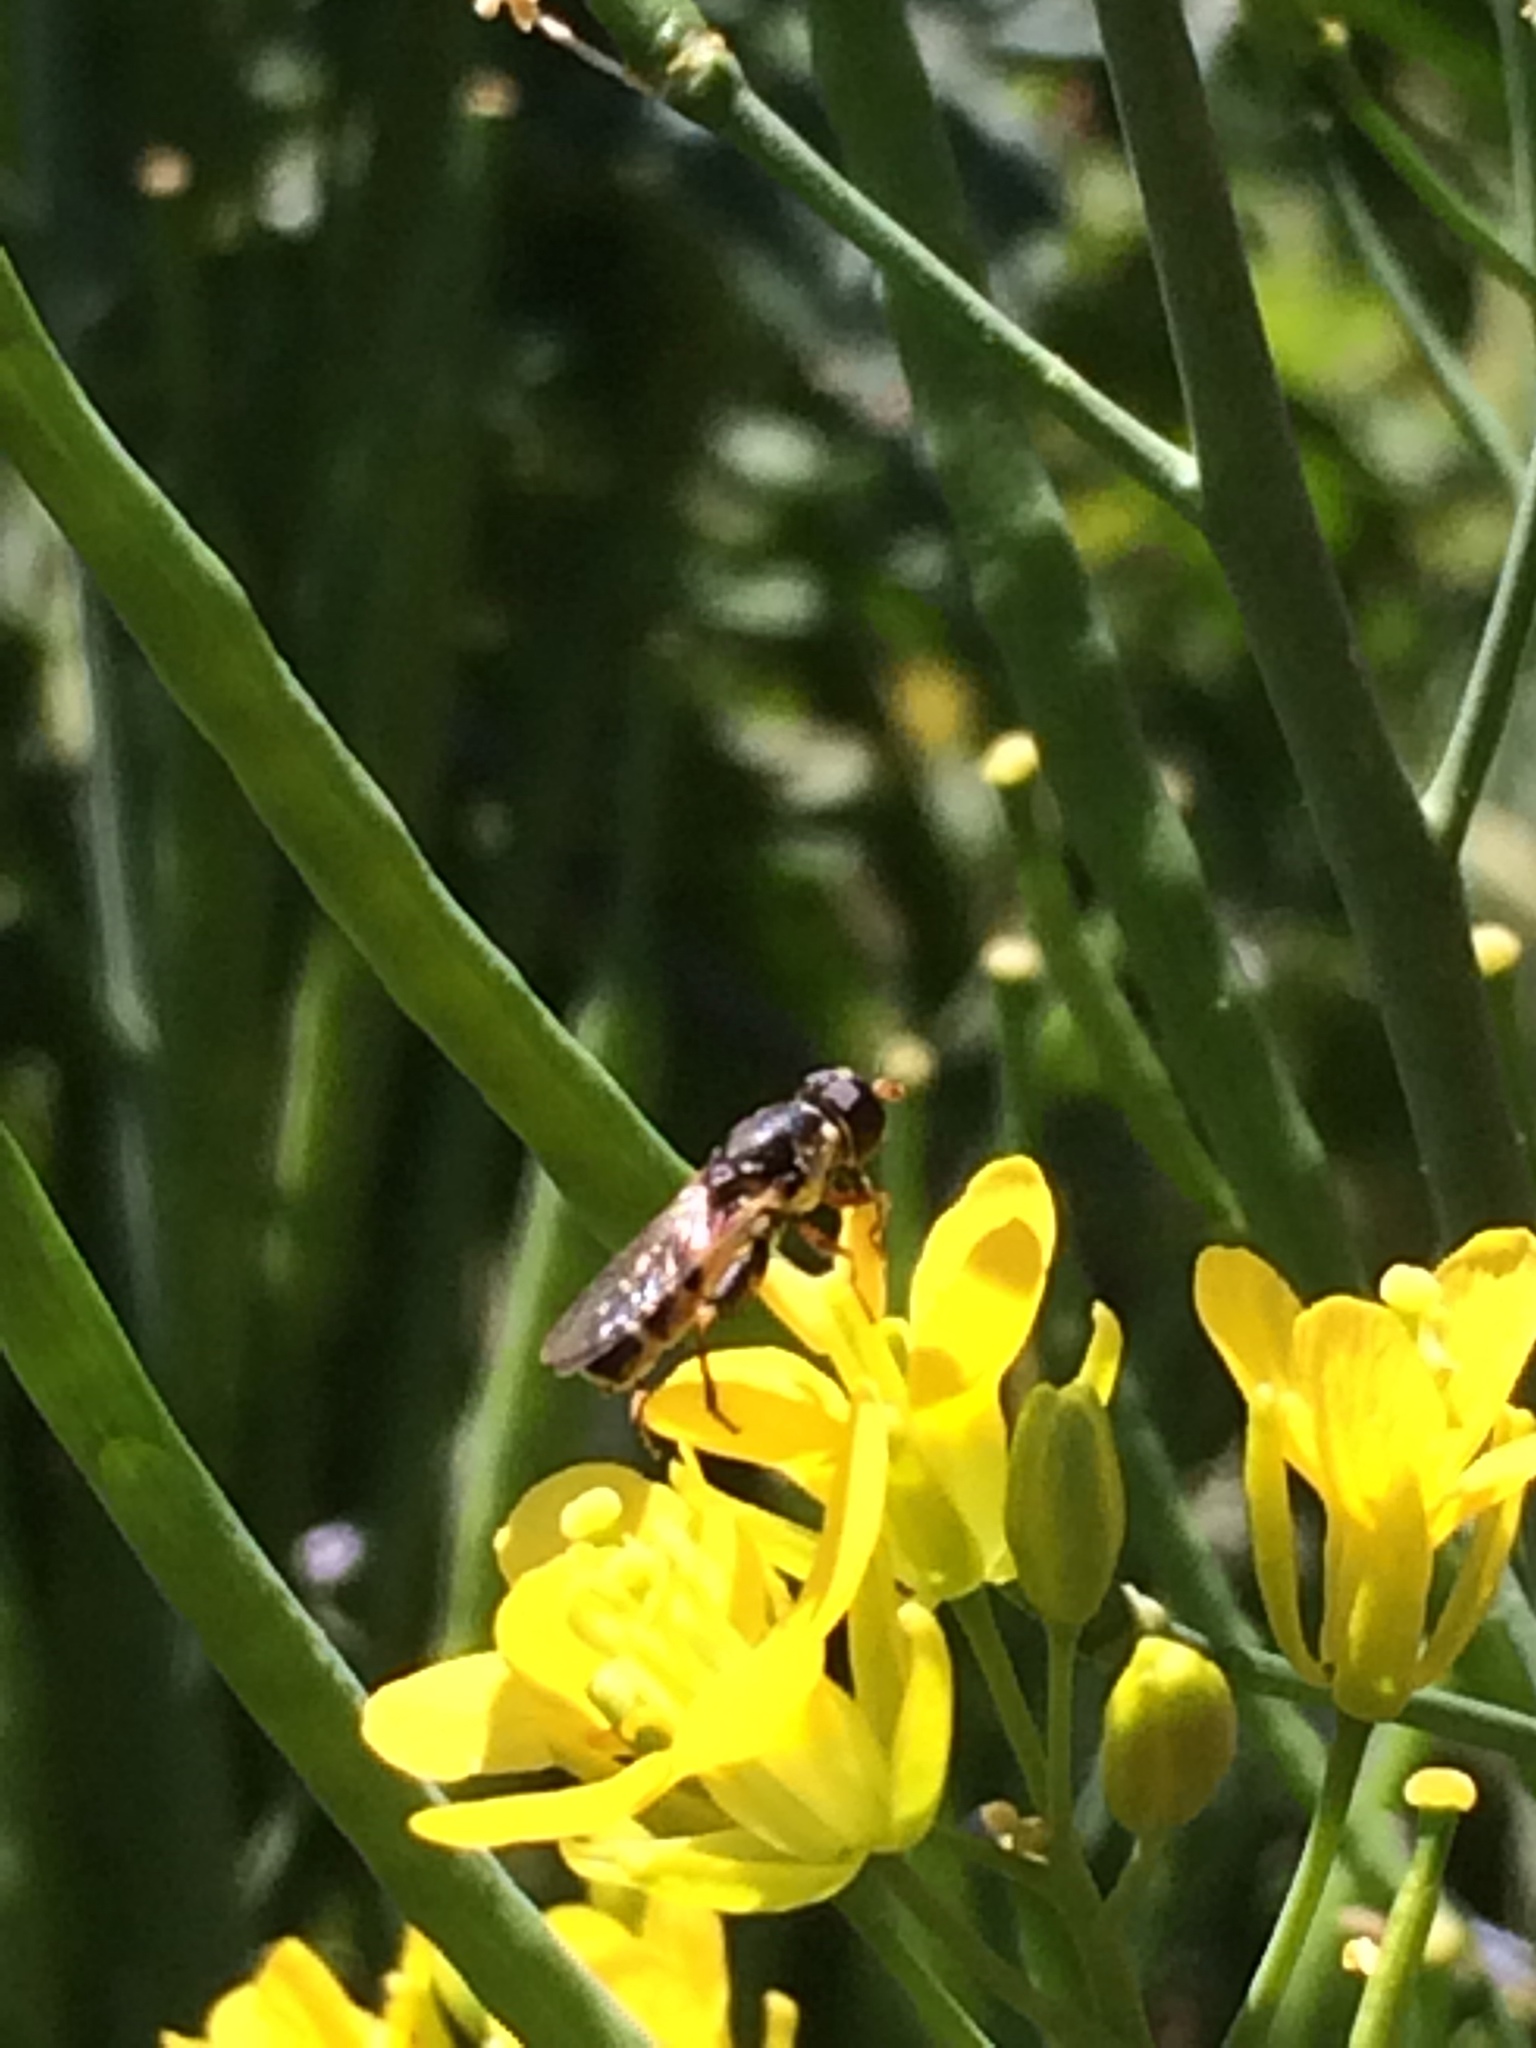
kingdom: Animalia
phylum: Arthropoda
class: Insecta
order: Diptera
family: Syrphidae
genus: Syritta
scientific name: Syritta pipiens
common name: Hover fly
